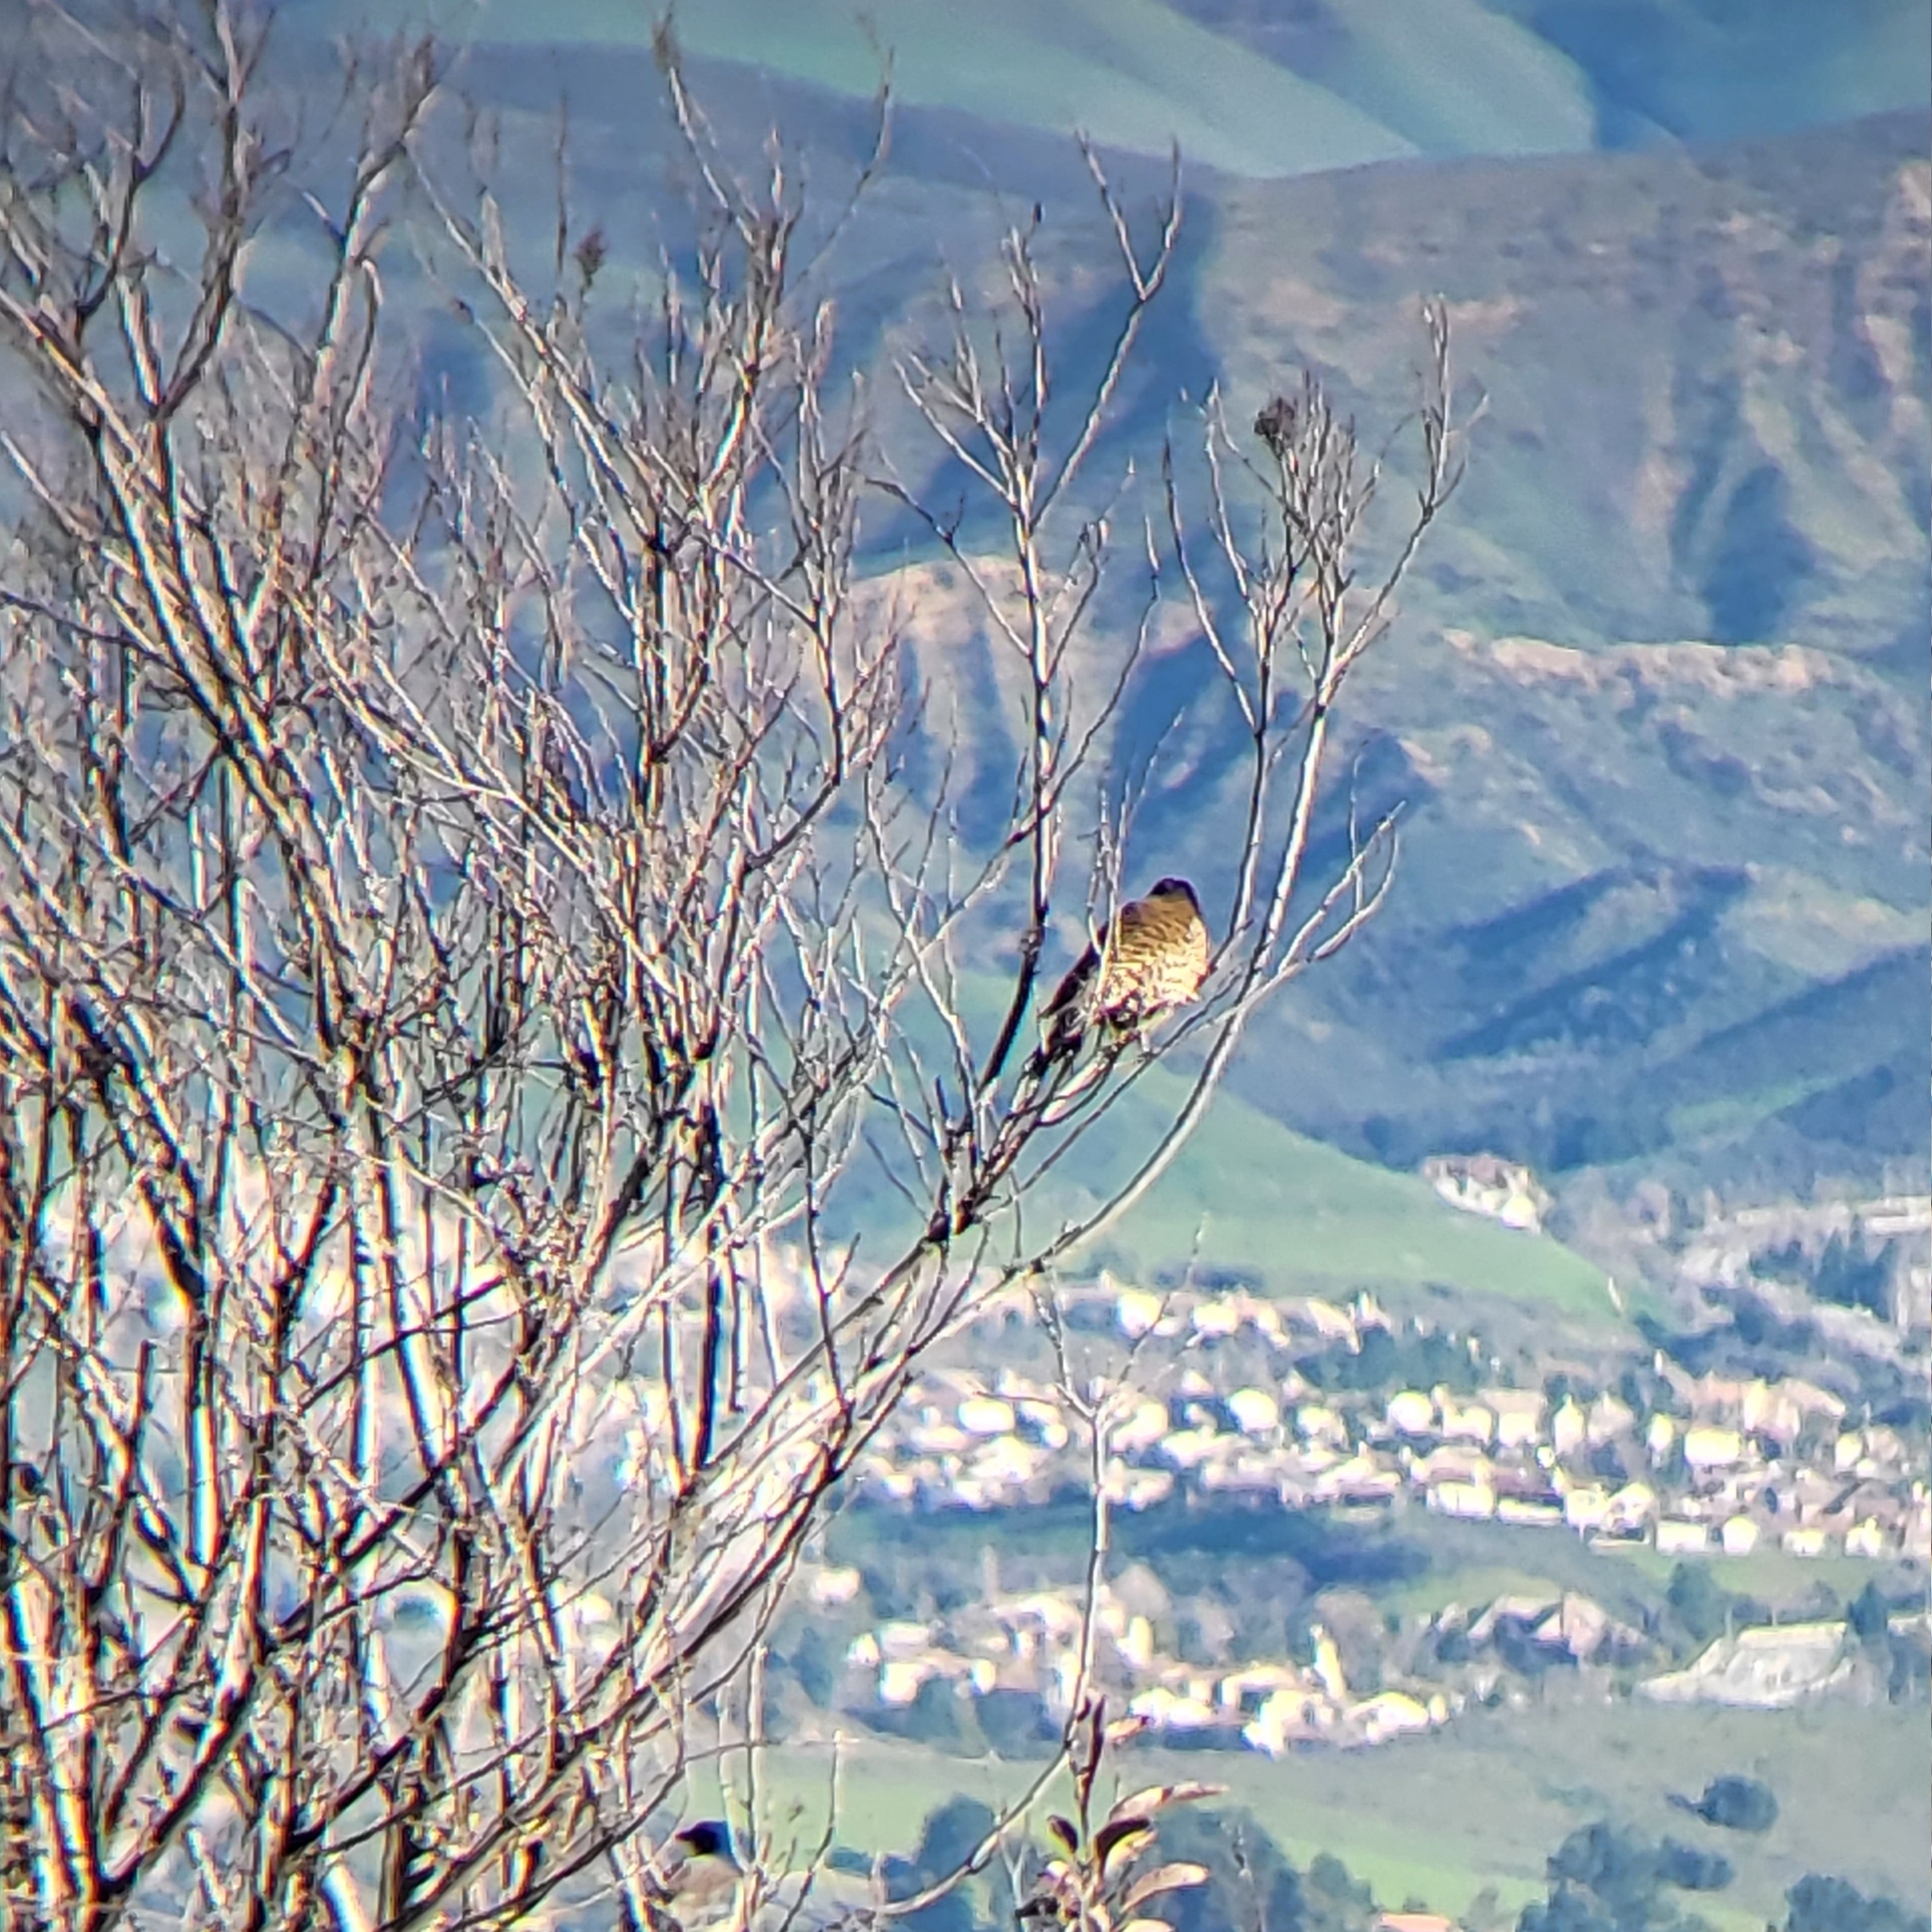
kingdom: Animalia
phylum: Chordata
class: Aves
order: Falconiformes
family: Falconidae
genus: Falco
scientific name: Falco sparverius
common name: American kestrel
